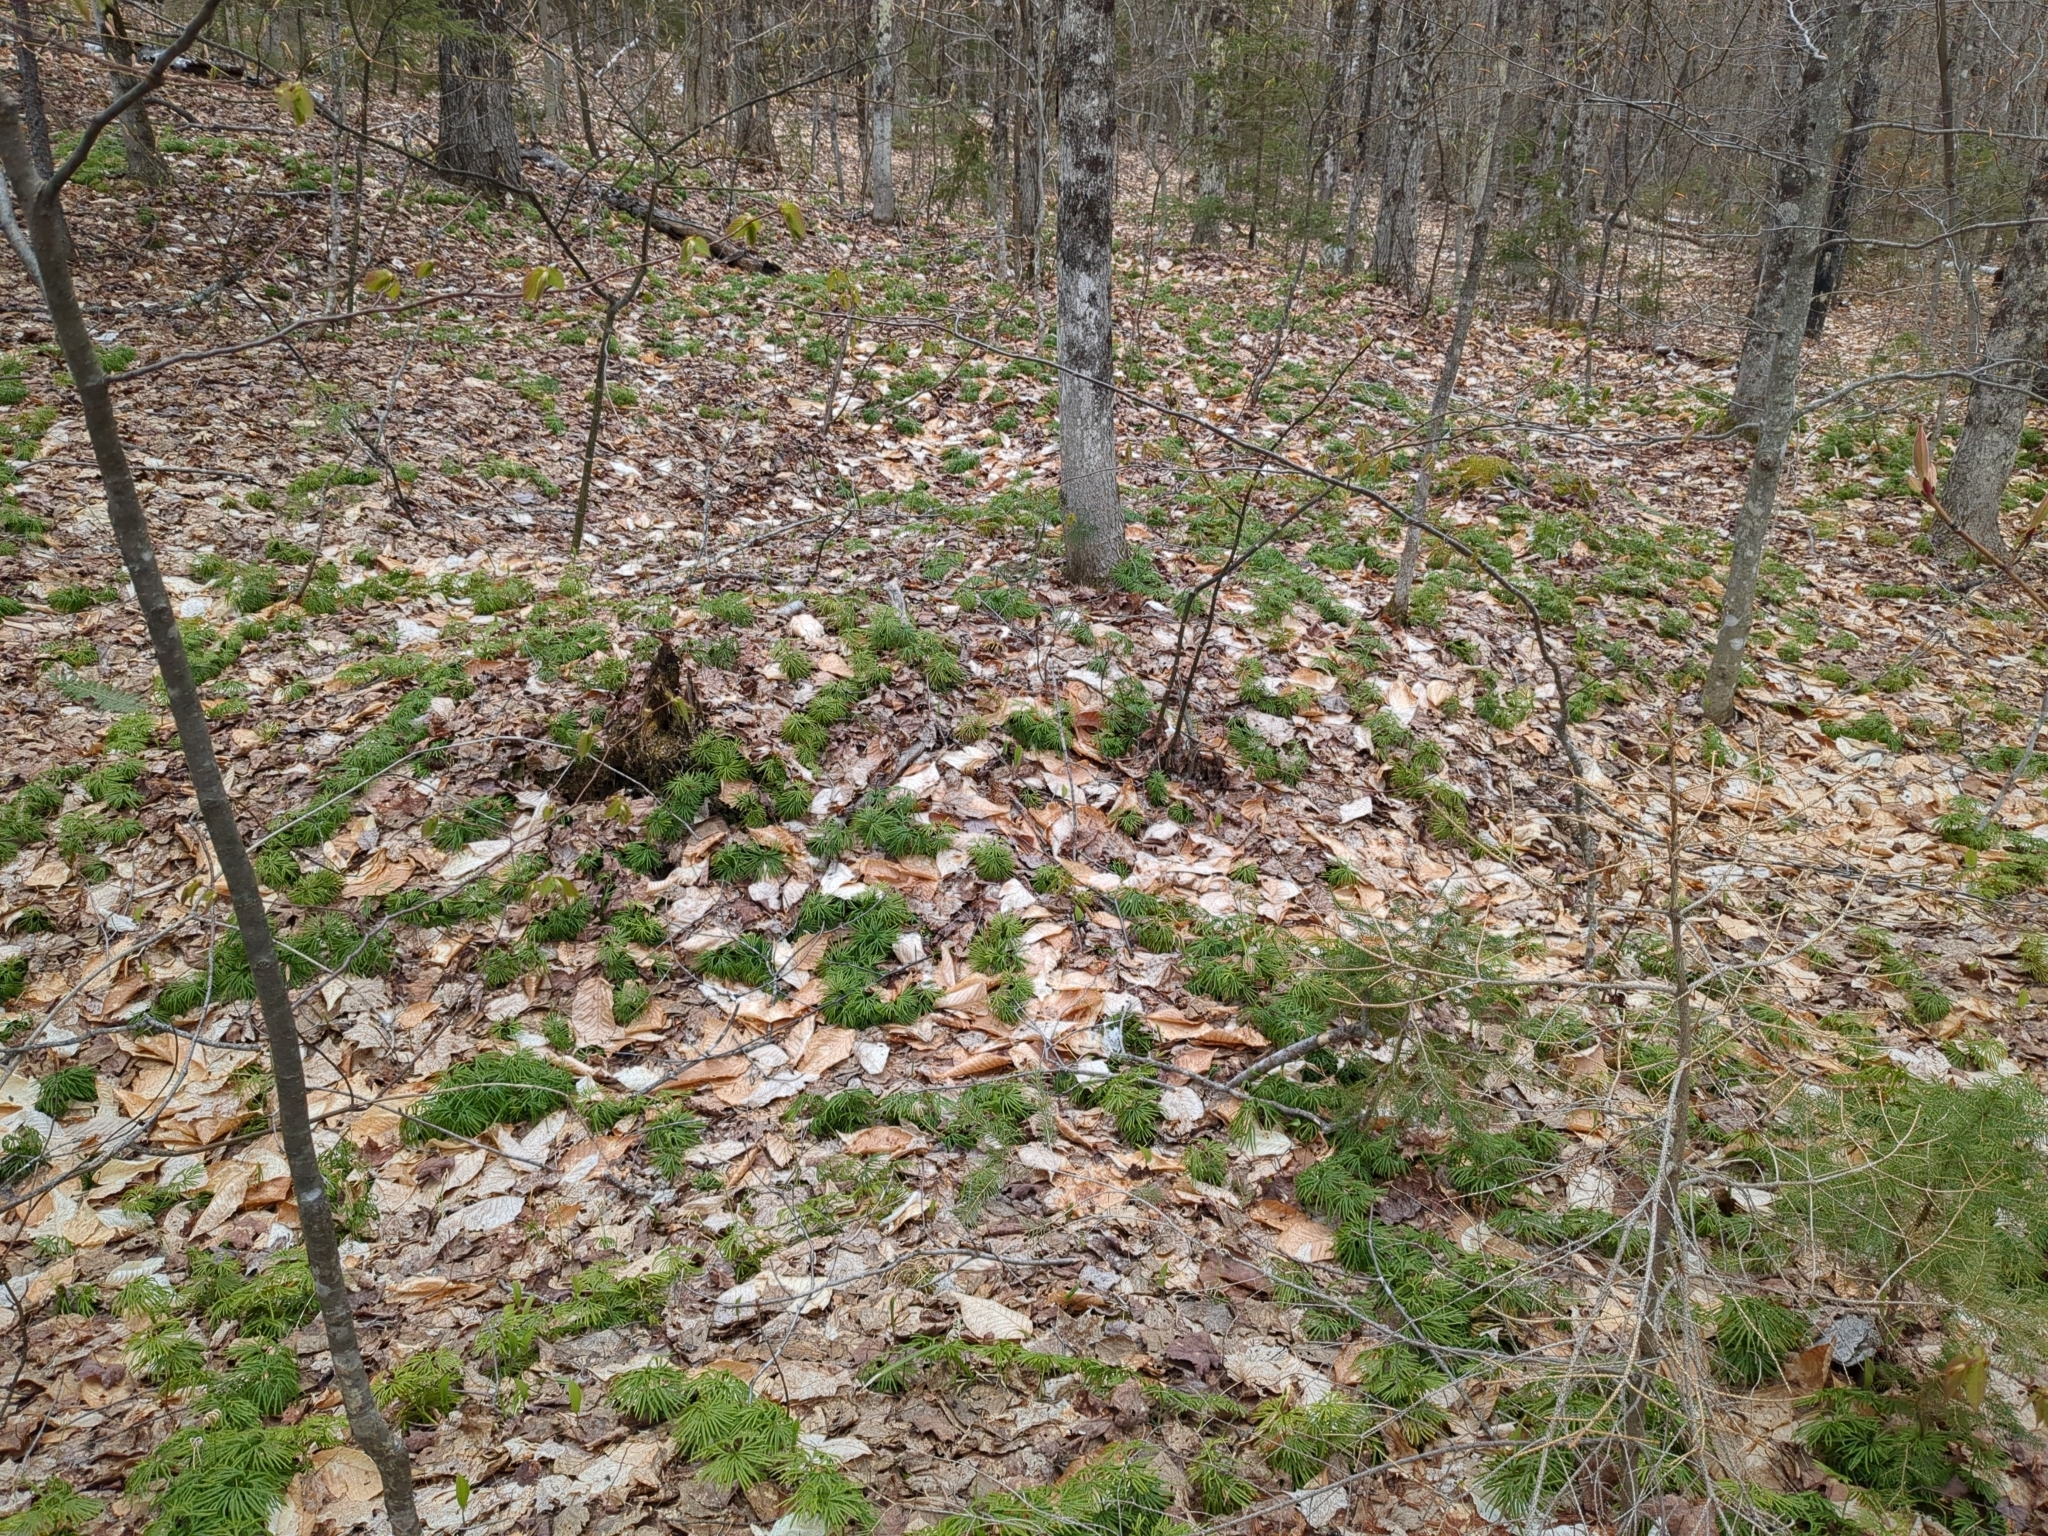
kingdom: Plantae
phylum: Tracheophyta
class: Lycopodiopsida
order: Lycopodiales
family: Lycopodiaceae
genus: Diphasiastrum
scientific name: Diphasiastrum digitatum
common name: Southern running-pine
